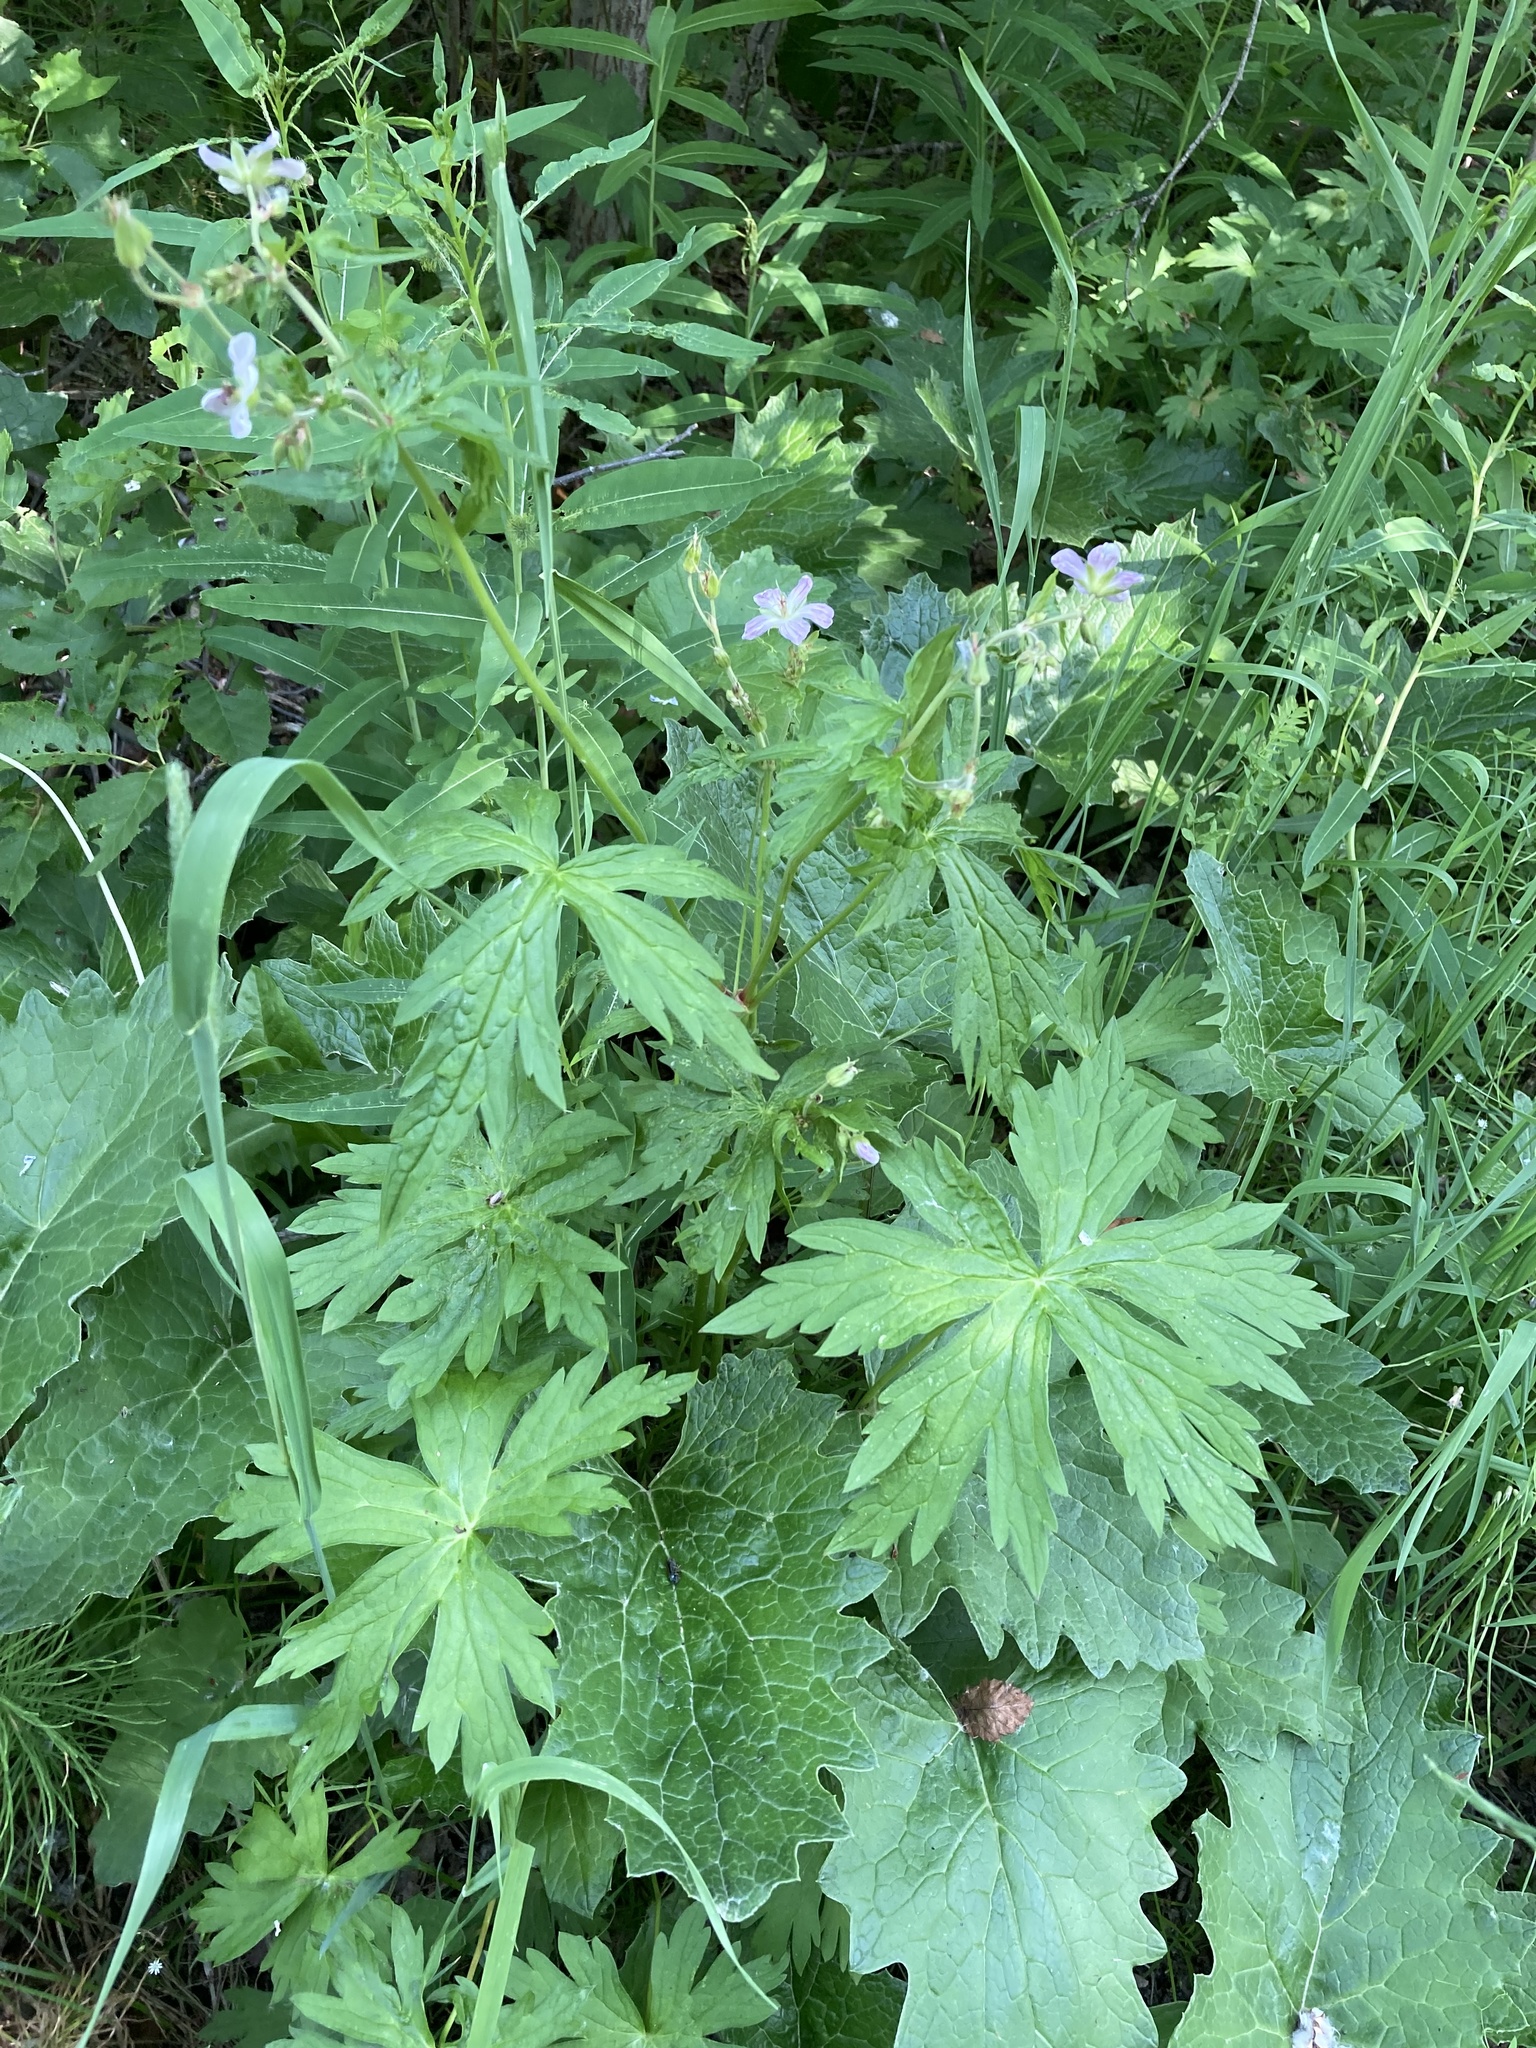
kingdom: Plantae
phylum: Tracheophyta
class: Magnoliopsida
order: Geraniales
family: Geraniaceae
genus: Geranium
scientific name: Geranium richardsonii
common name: Richardson's crane's-bill
